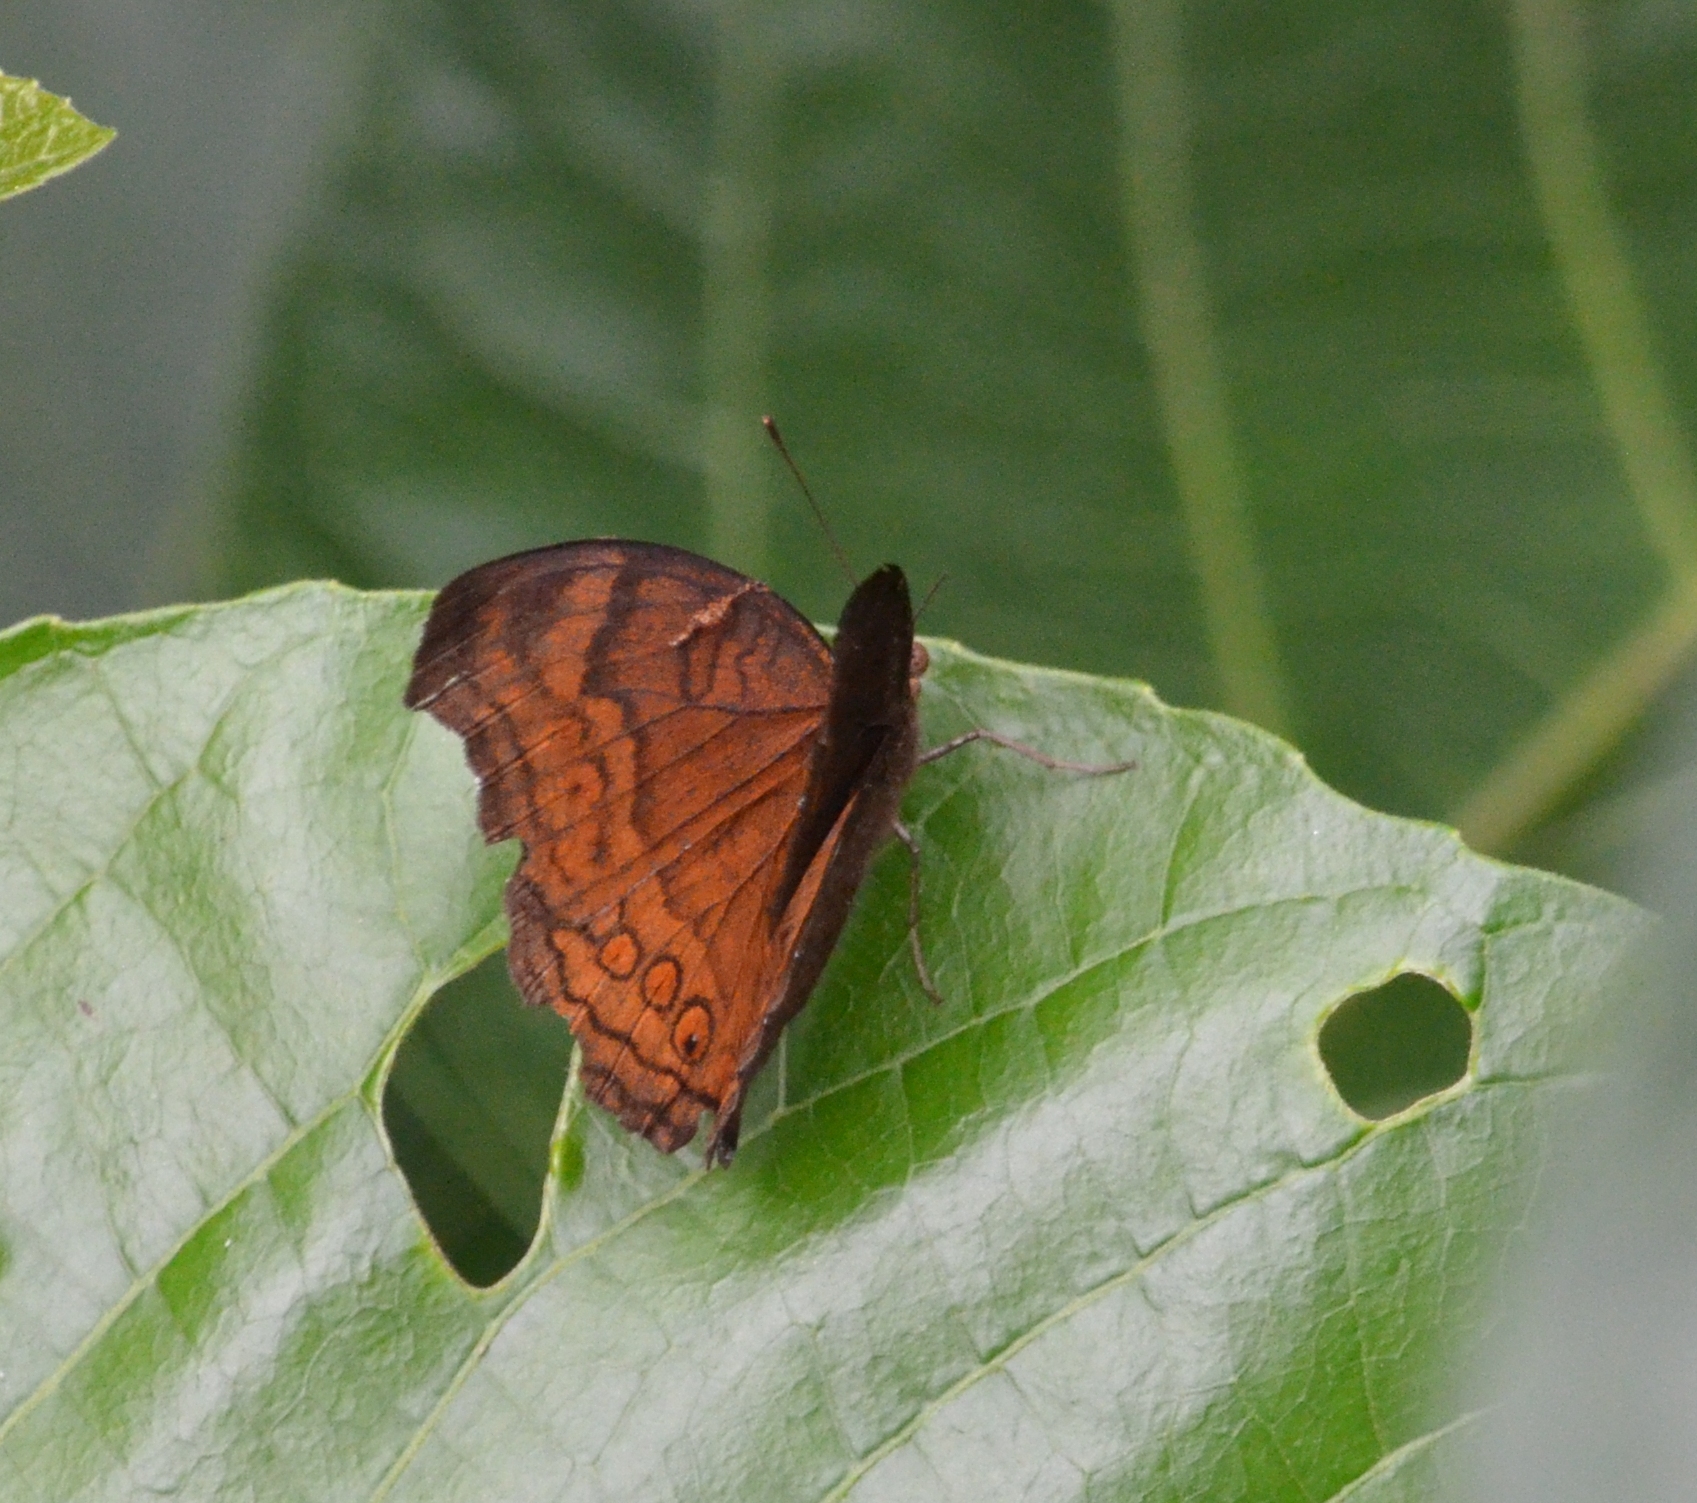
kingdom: Animalia
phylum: Arthropoda
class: Insecta
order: Lepidoptera
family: Nymphalidae
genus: Junonia
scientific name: Junonia hedonia
